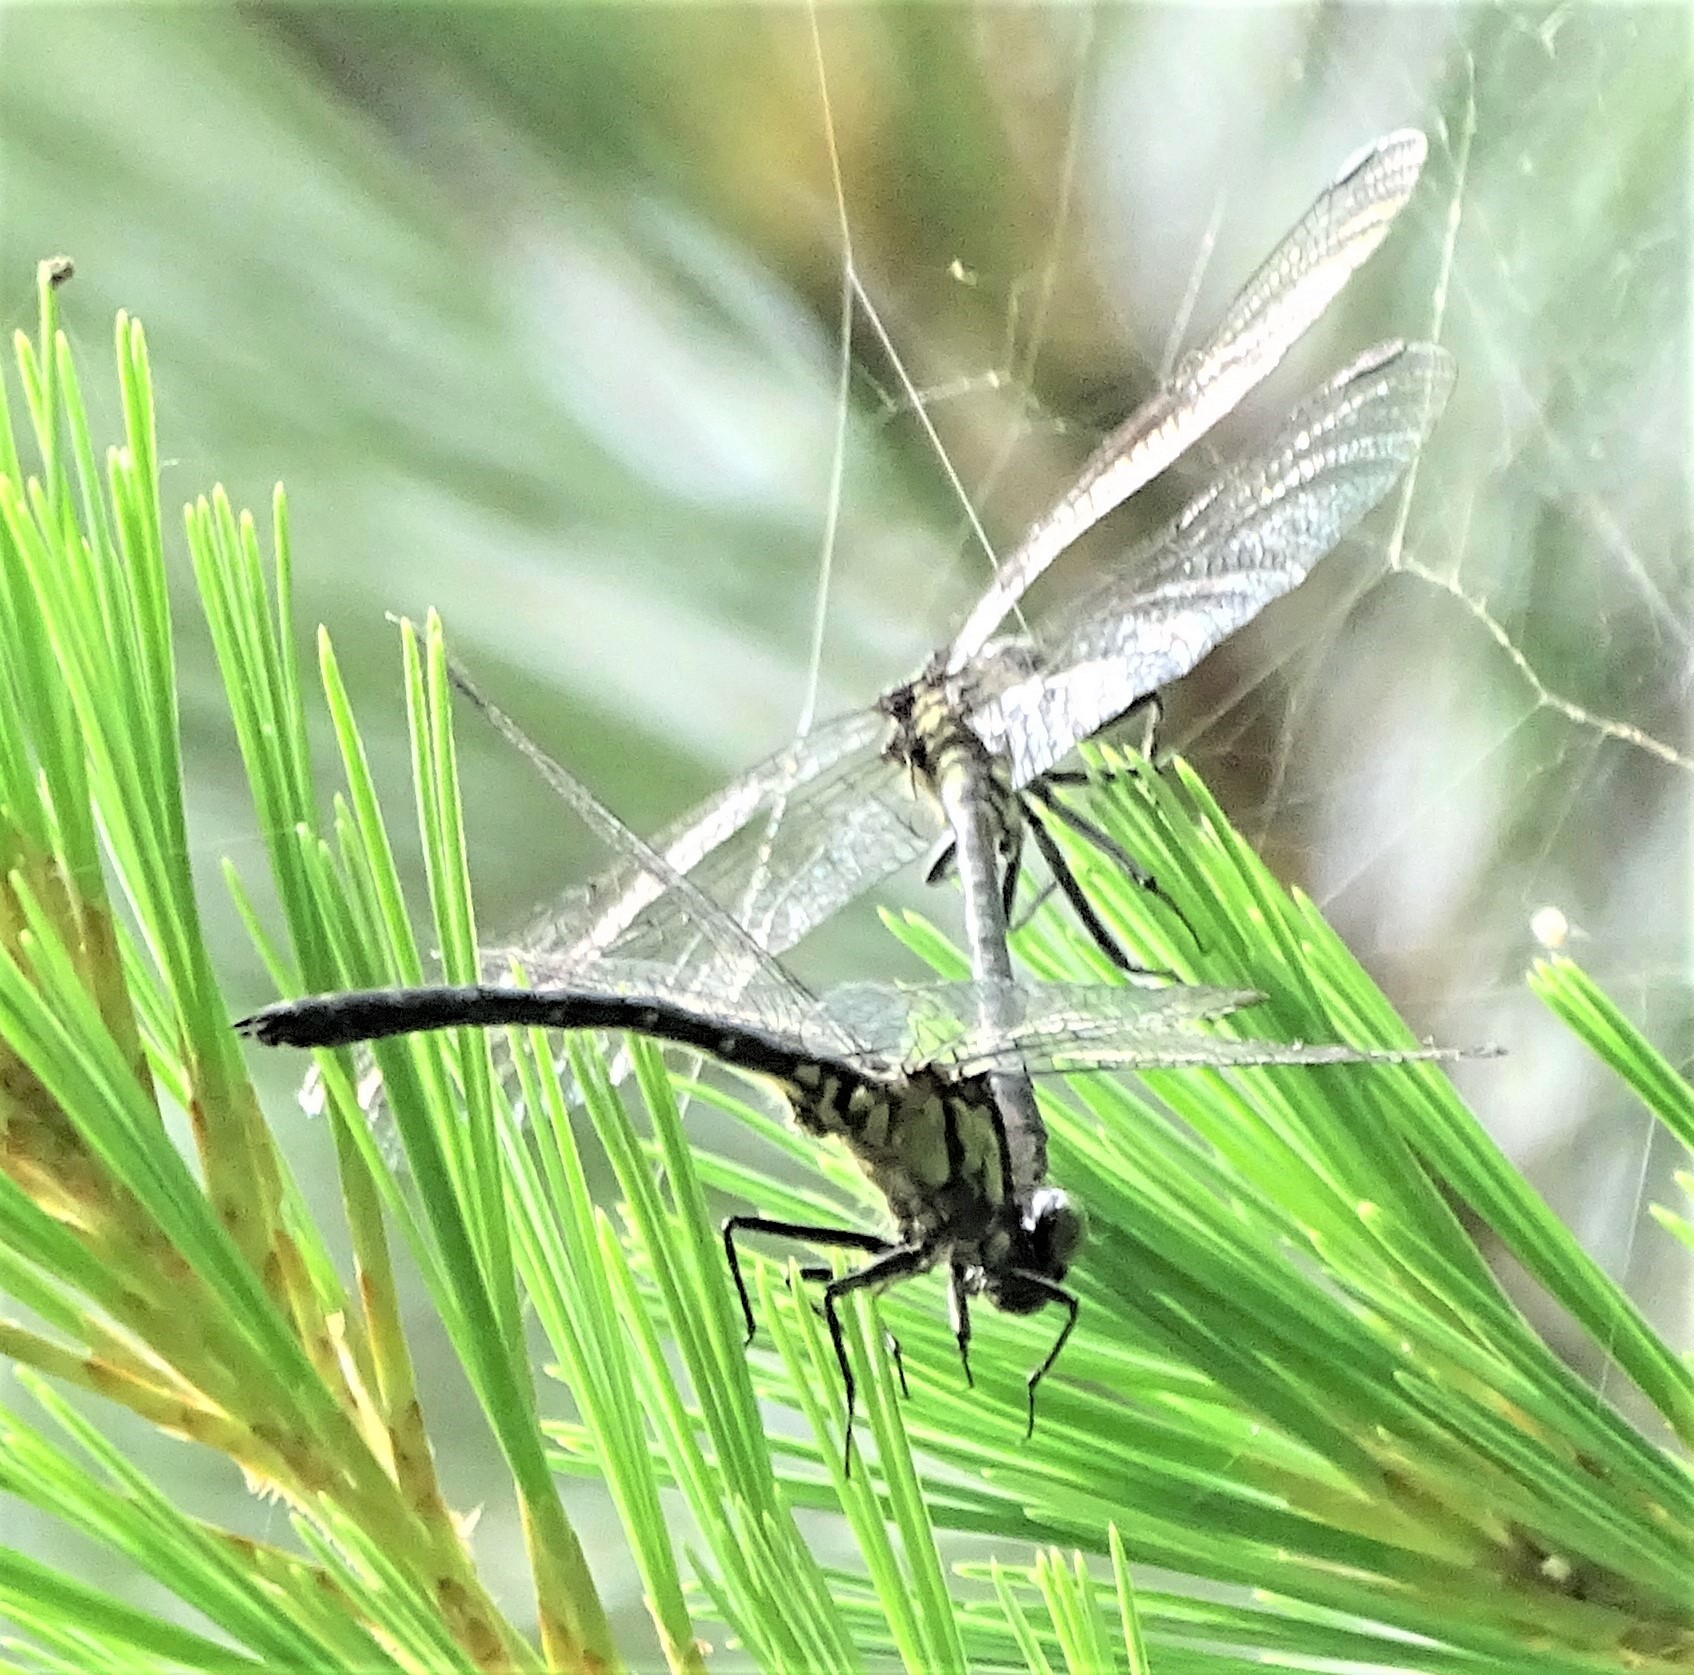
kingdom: Animalia
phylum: Arthropoda
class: Insecta
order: Odonata
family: Gomphidae
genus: Lanthus
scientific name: Lanthus vernalis
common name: Southern pygmy clubtail
